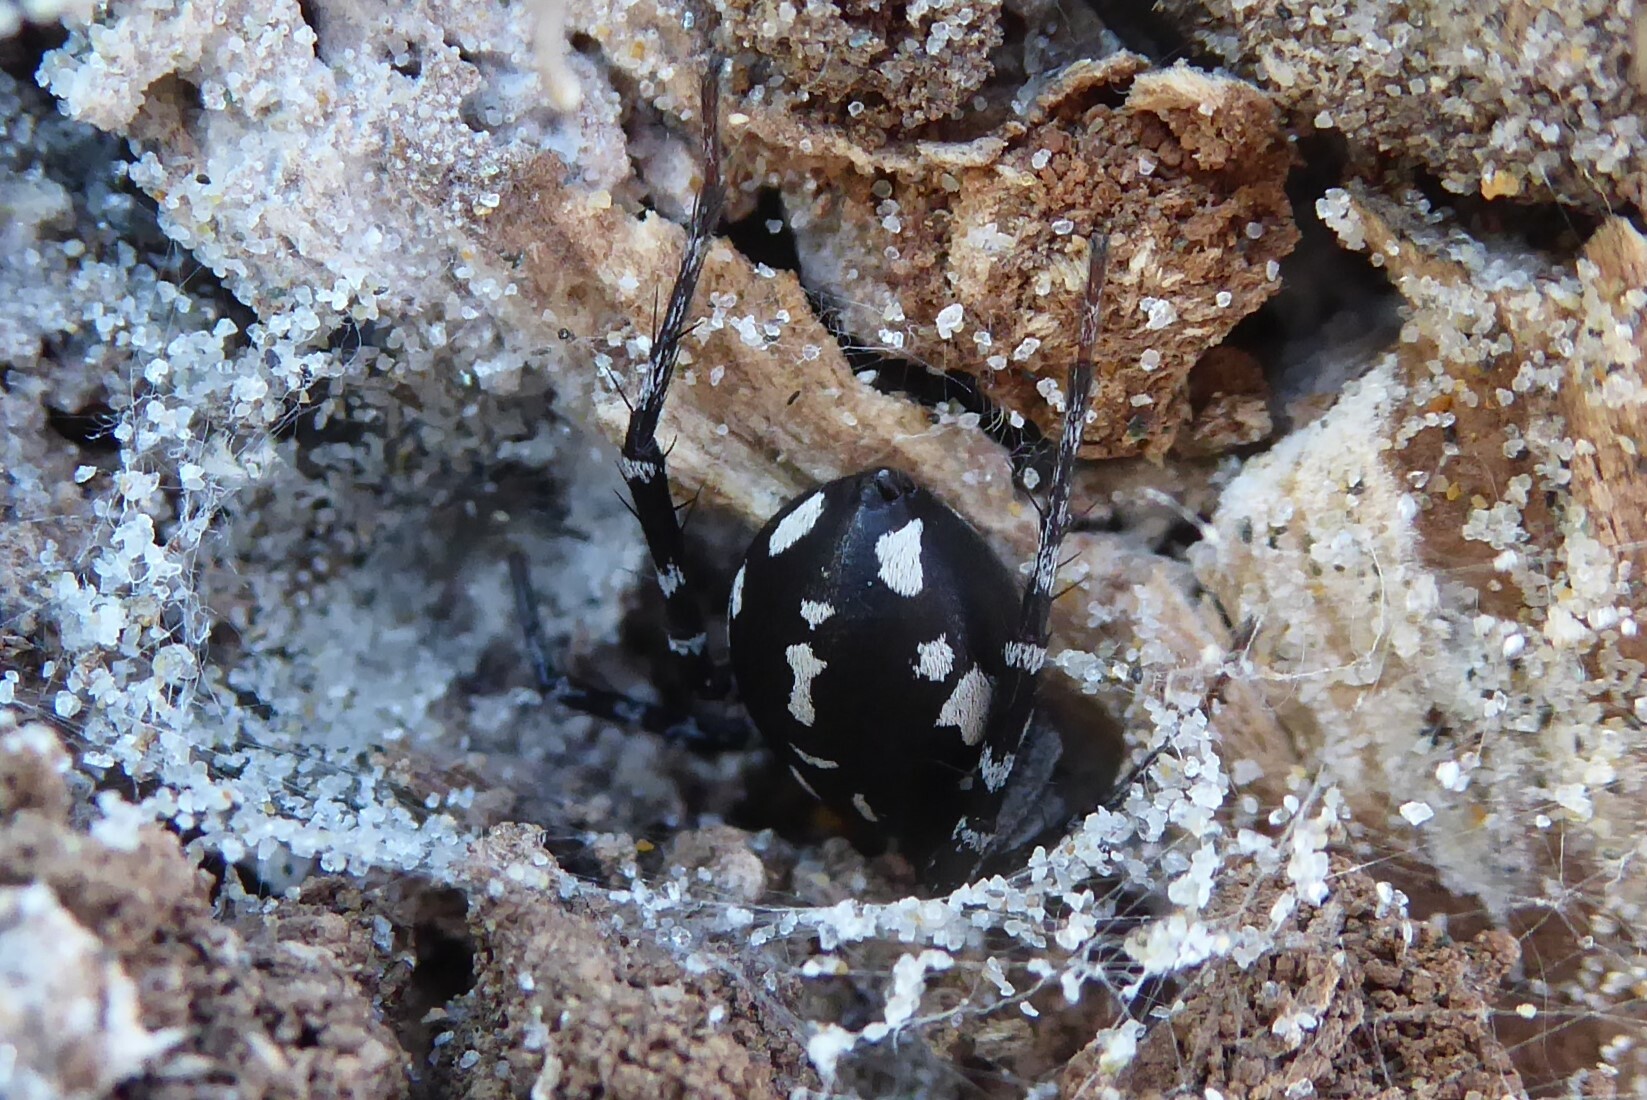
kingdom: Animalia
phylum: Arthropoda
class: Arachnida
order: Araneae
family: Corinnidae
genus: Nyssus
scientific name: Nyssus coloripes
